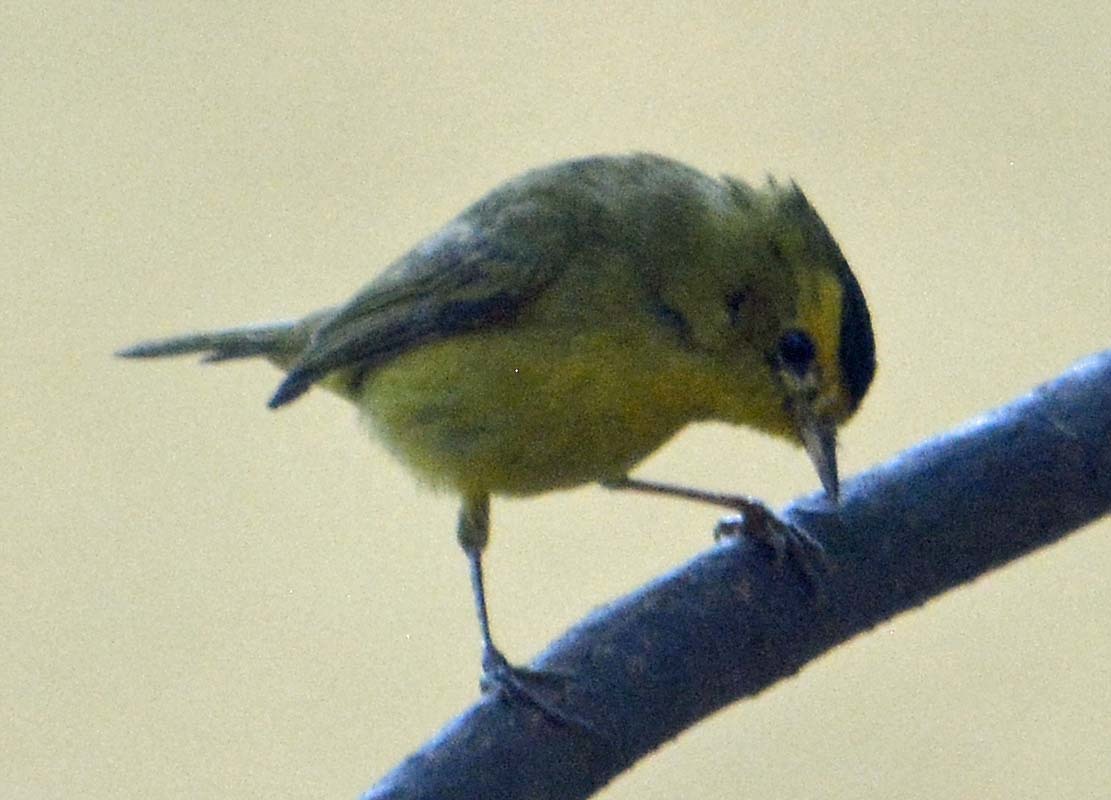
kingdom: Animalia
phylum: Chordata
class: Aves
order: Passeriformes
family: Parulidae
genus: Cardellina
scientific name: Cardellina pusilla
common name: Wilson's warbler
